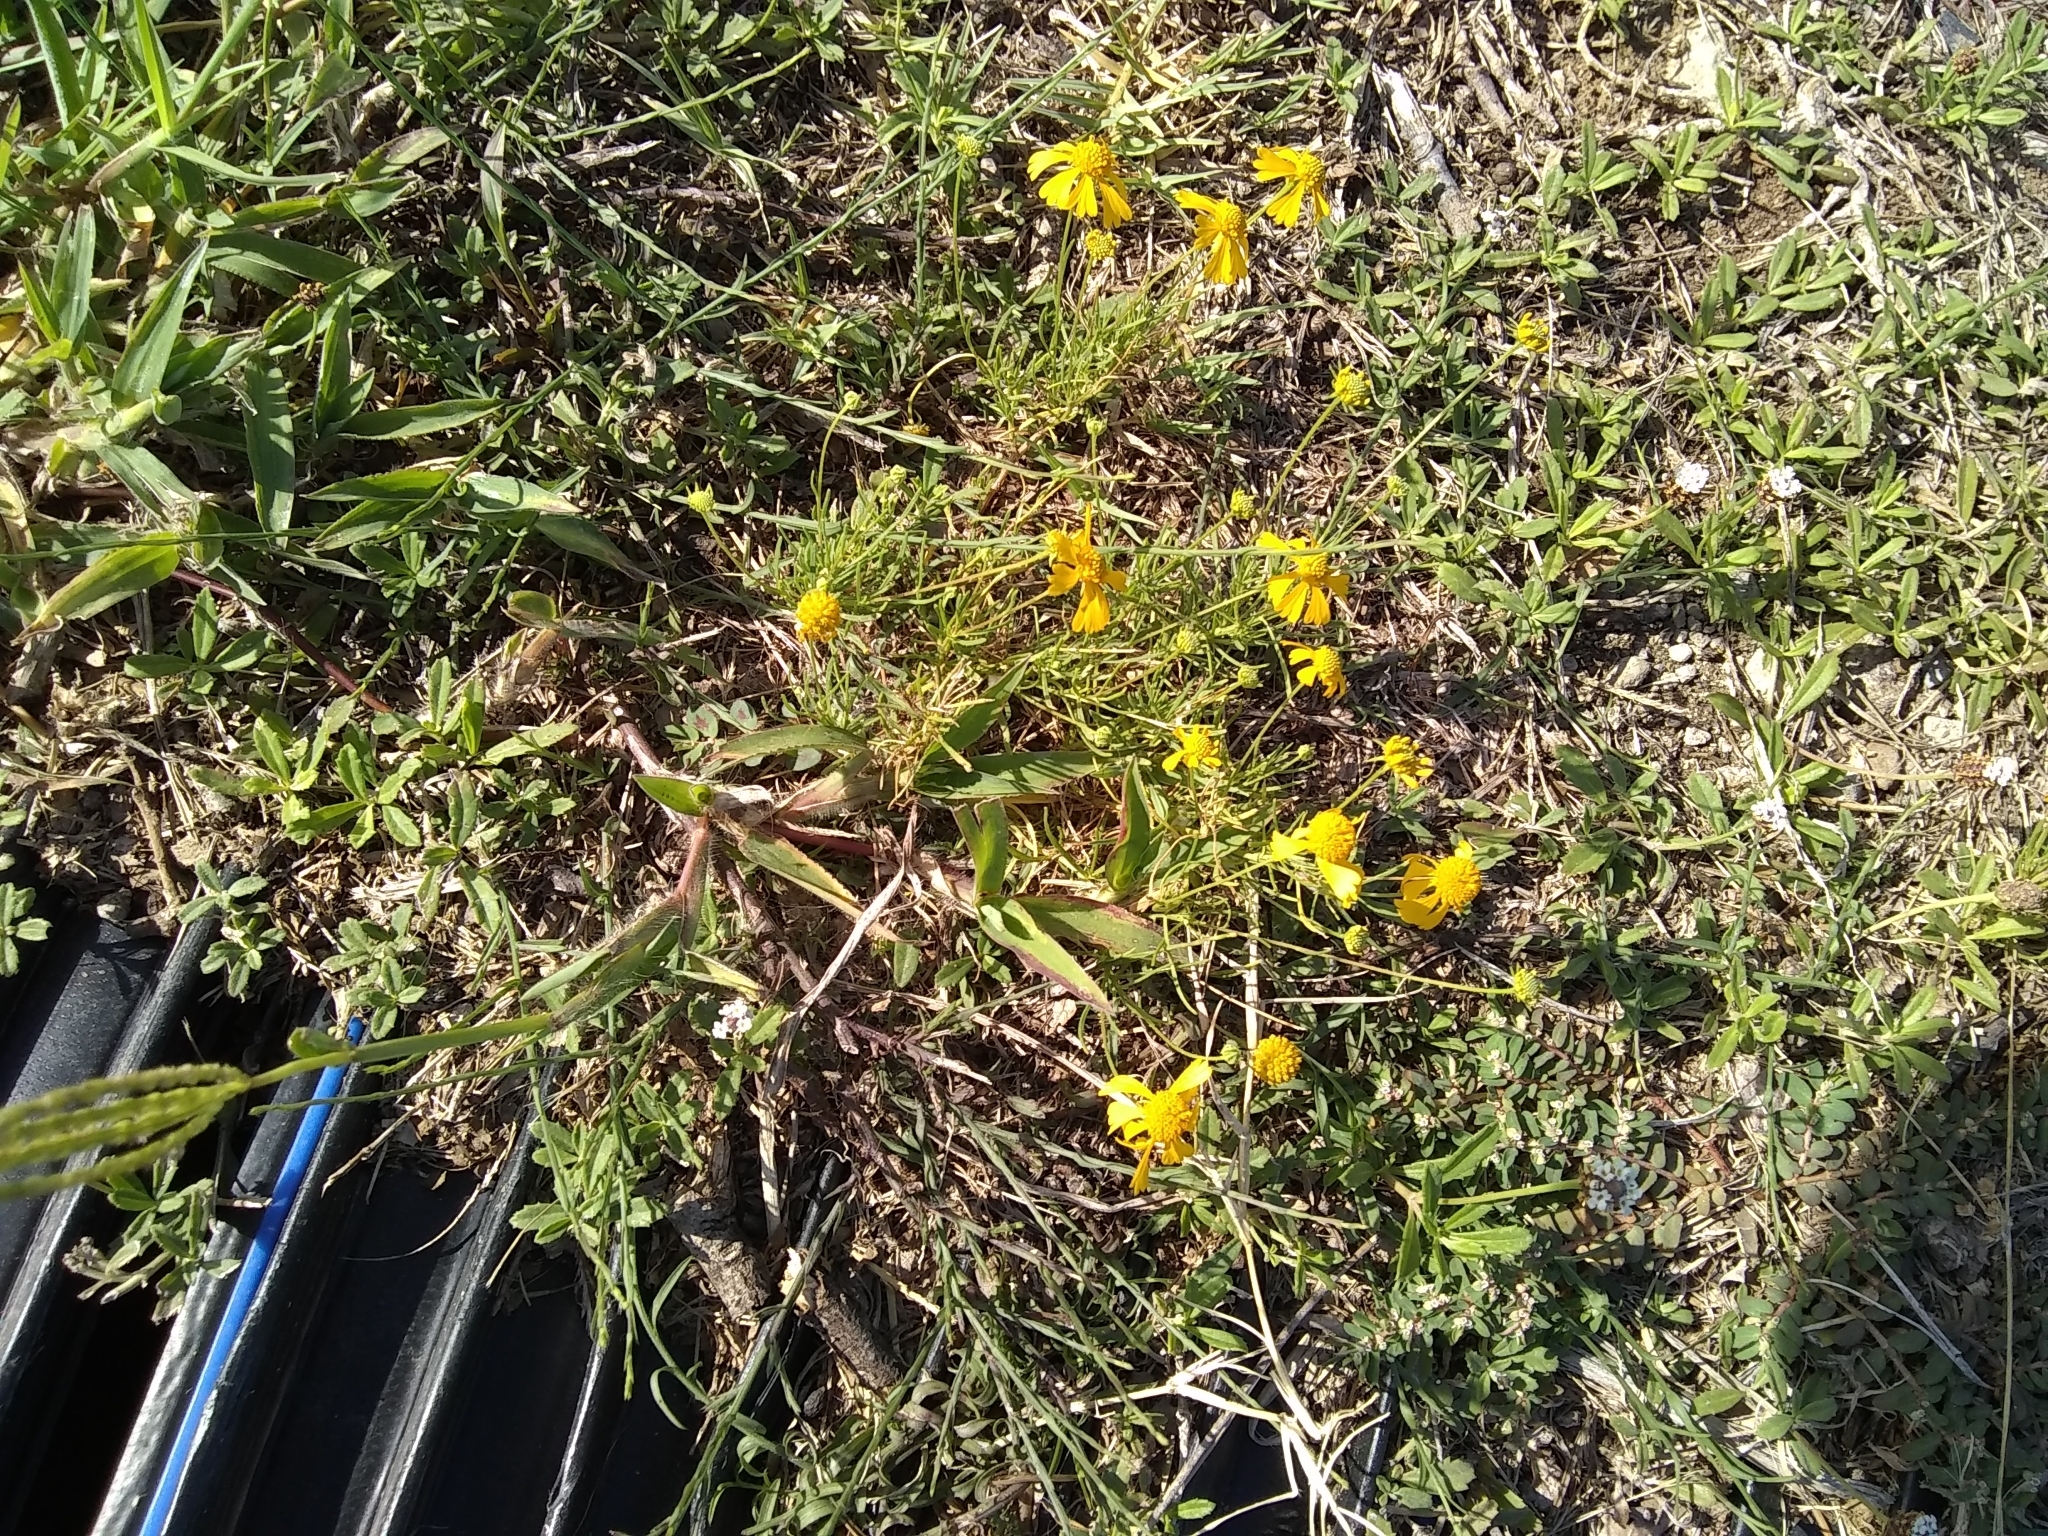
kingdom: Plantae
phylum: Tracheophyta
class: Magnoliopsida
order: Asterales
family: Asteraceae
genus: Helenium
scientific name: Helenium amarum
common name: Bitter sneezeweed
